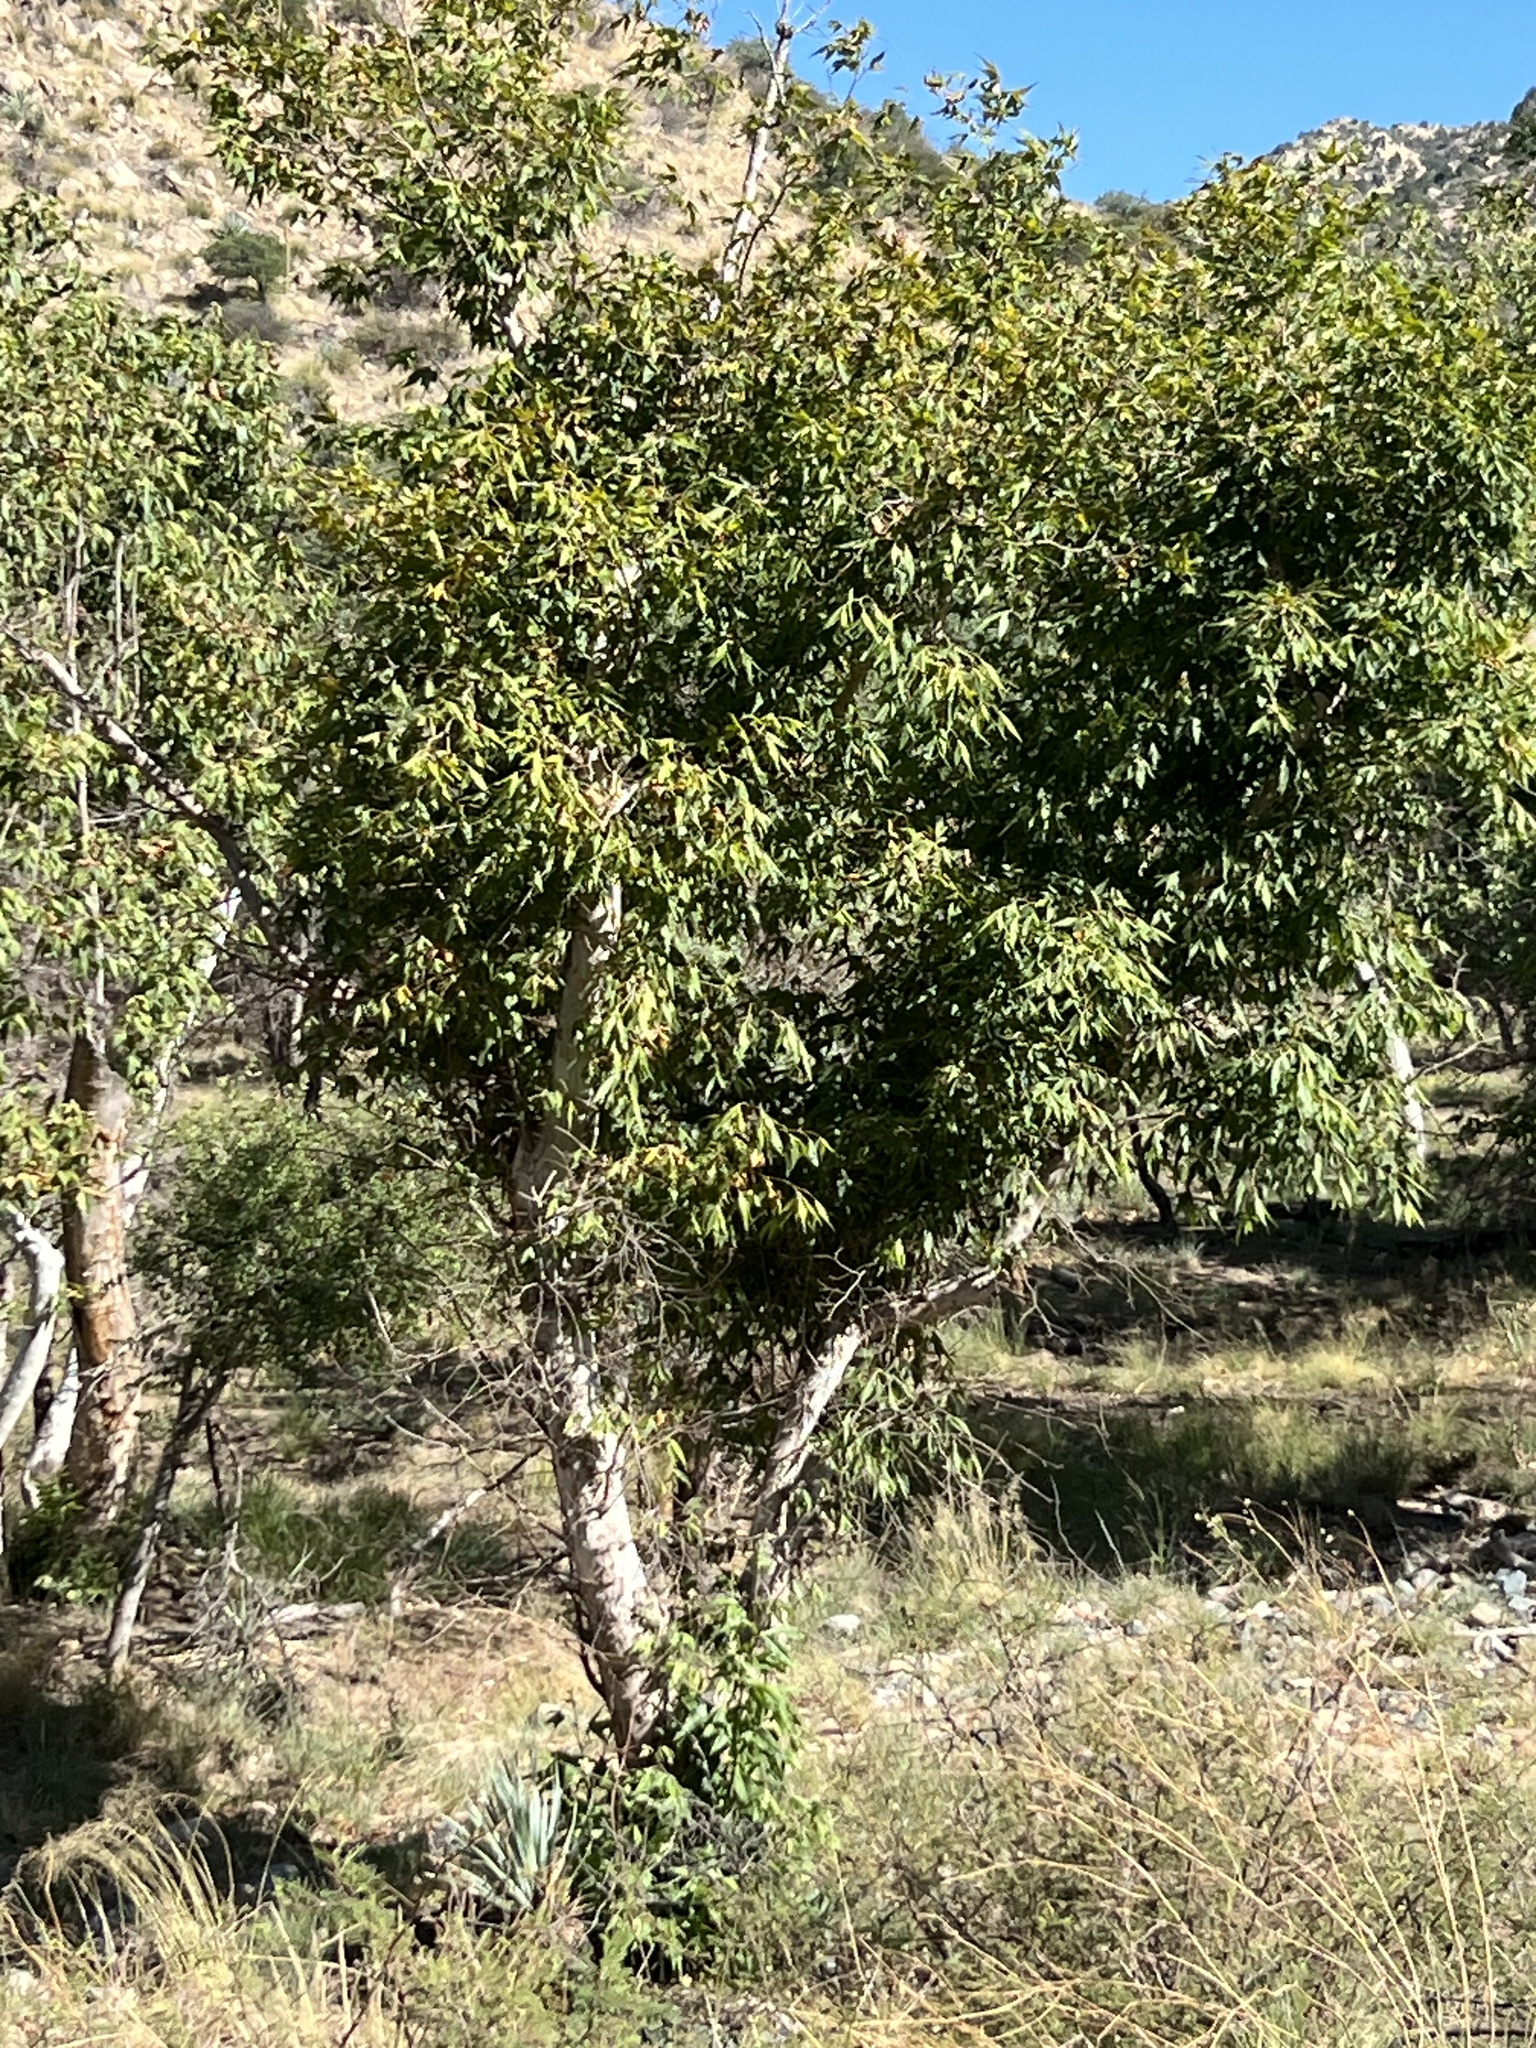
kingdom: Plantae
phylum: Tracheophyta
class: Magnoliopsida
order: Proteales
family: Platanaceae
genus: Platanus
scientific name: Platanus wrightii
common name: Arizona sycamore
